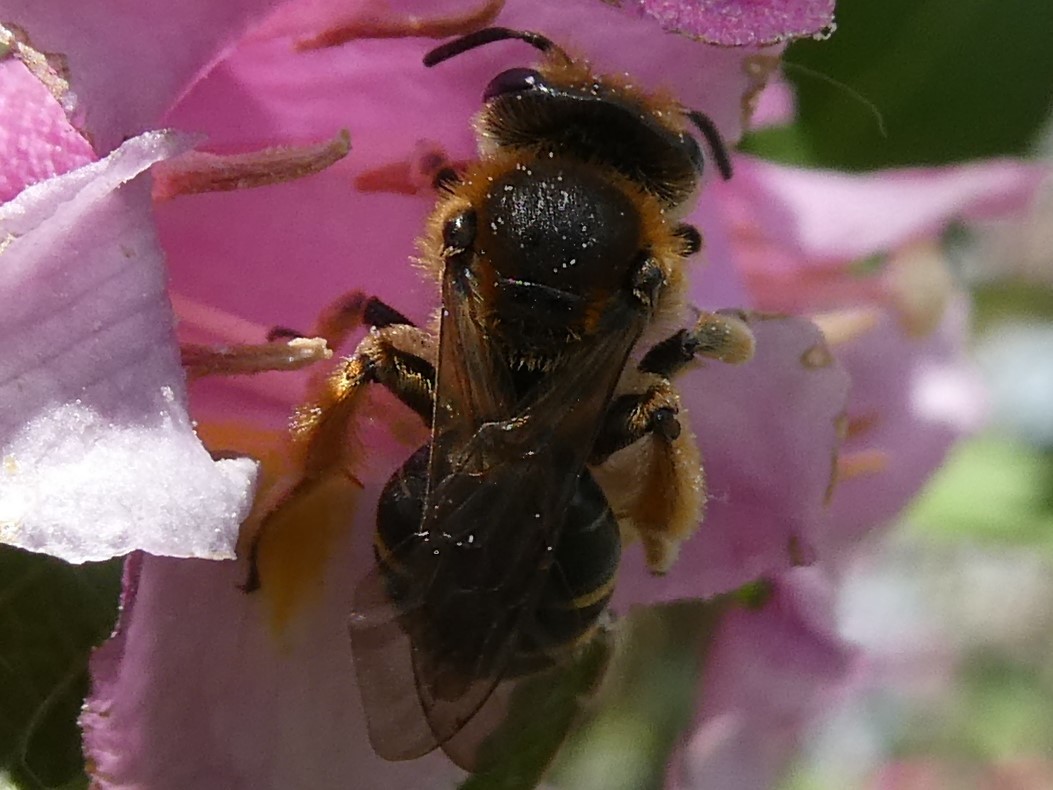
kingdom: Animalia
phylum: Arthropoda
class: Insecta
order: Hymenoptera
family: Andrenidae
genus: Andrena
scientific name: Andrena wilkella
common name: Wilke's mining bee
